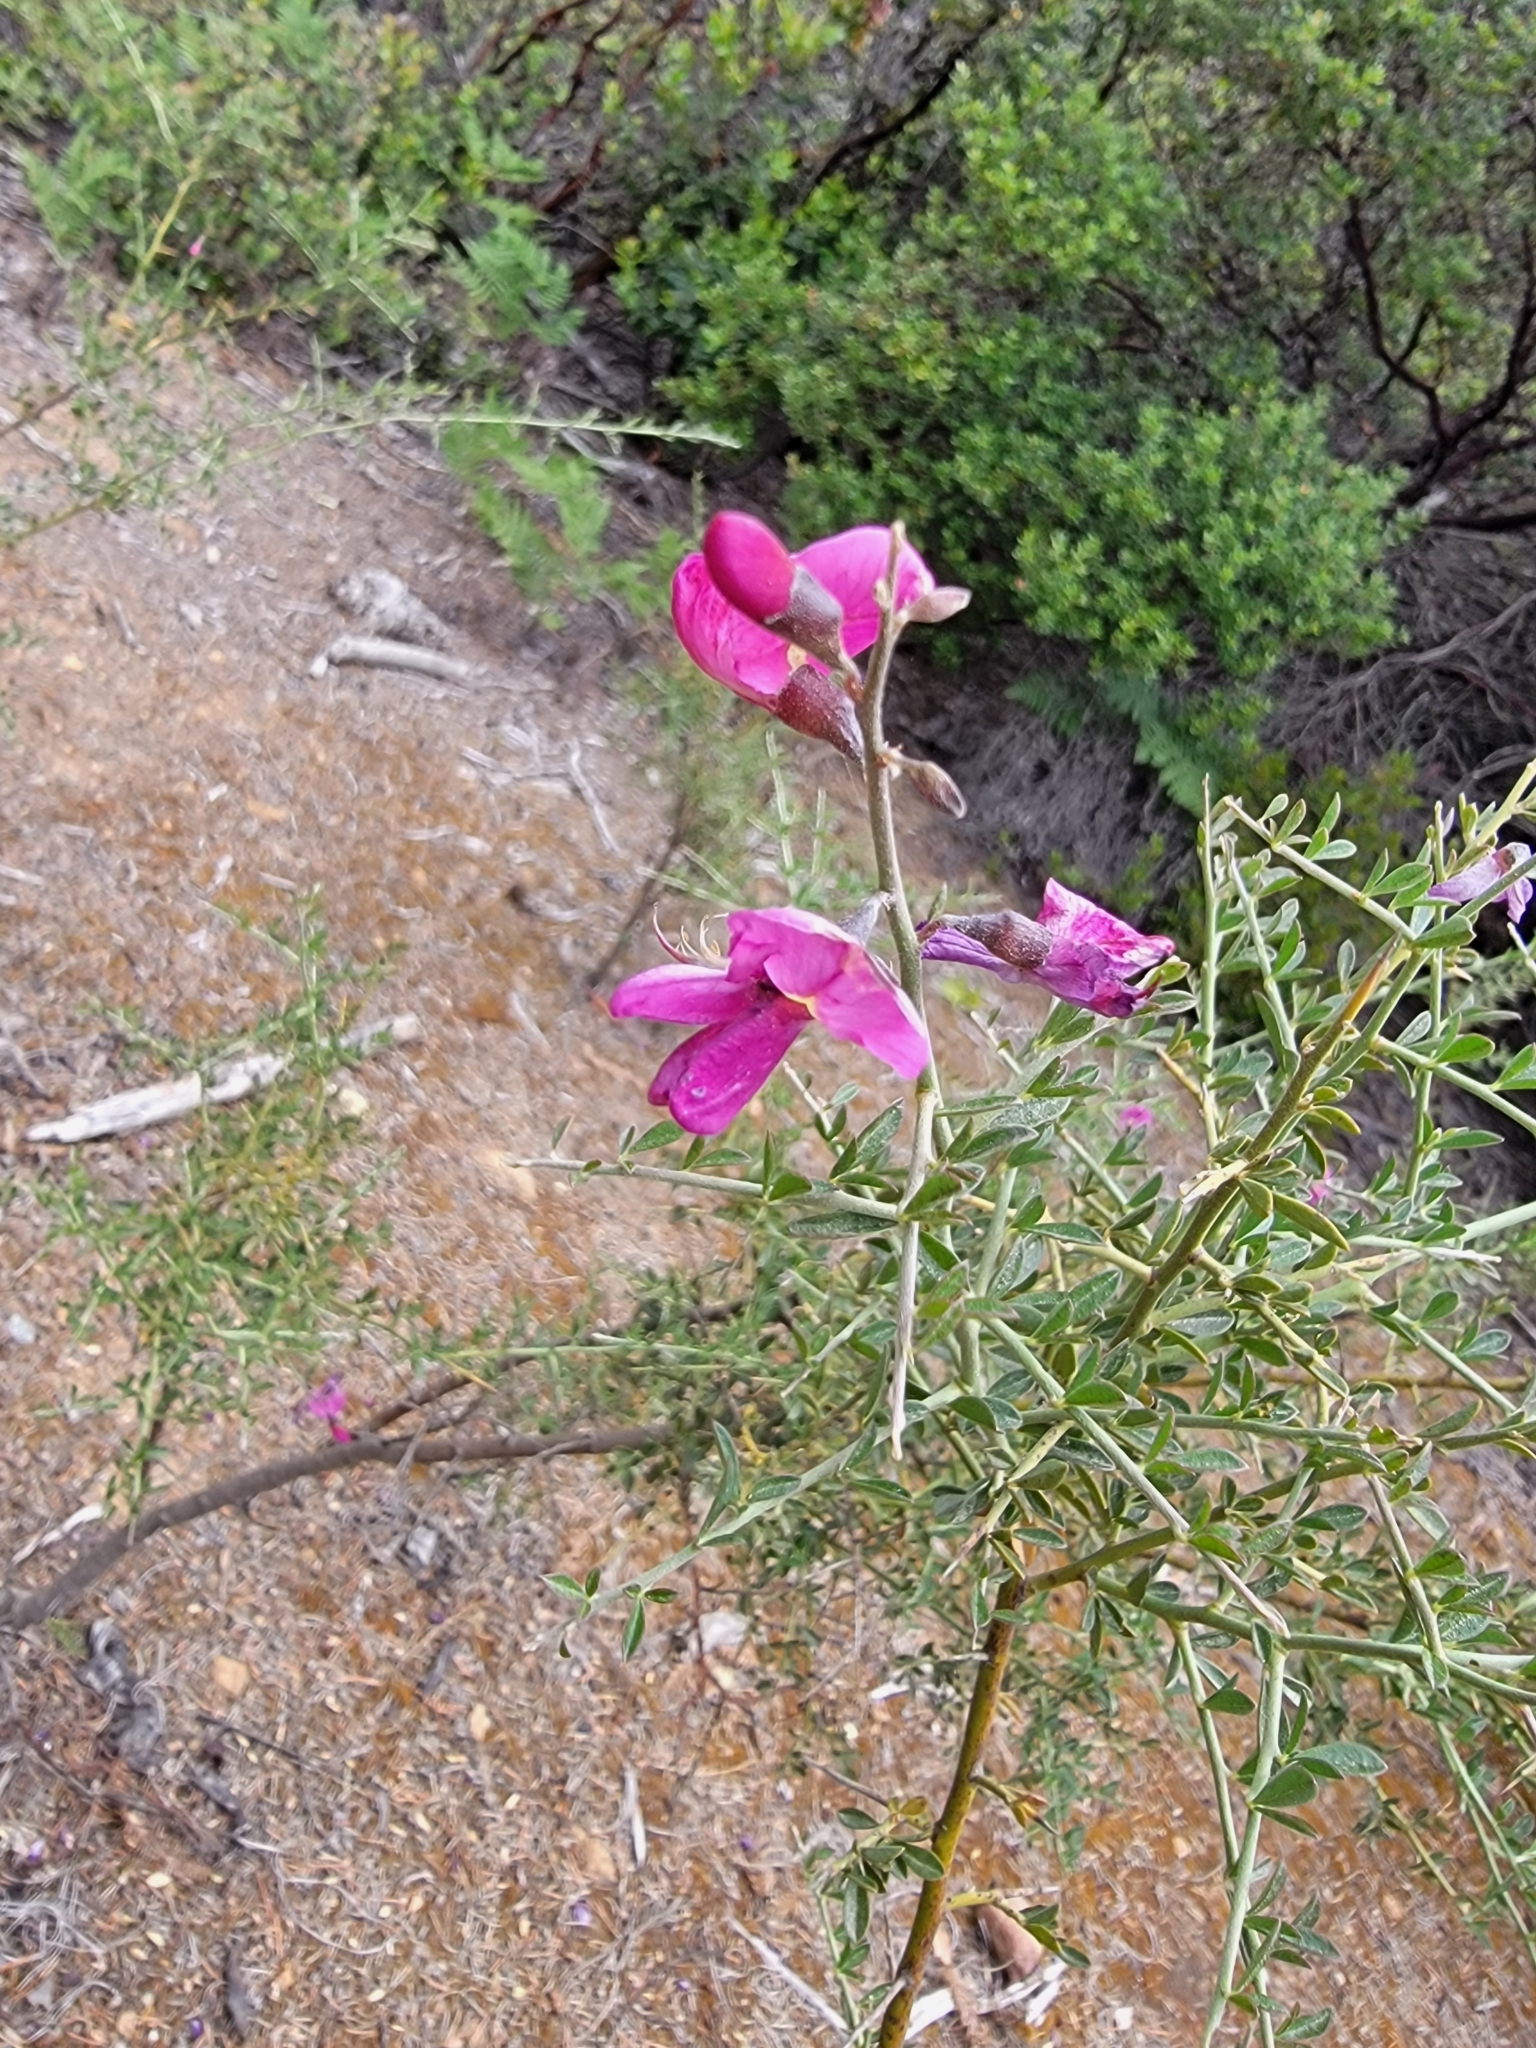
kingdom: Plantae
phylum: Tracheophyta
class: Magnoliopsida
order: Fabales
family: Fabaceae
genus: Pickeringia
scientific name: Pickeringia montana
